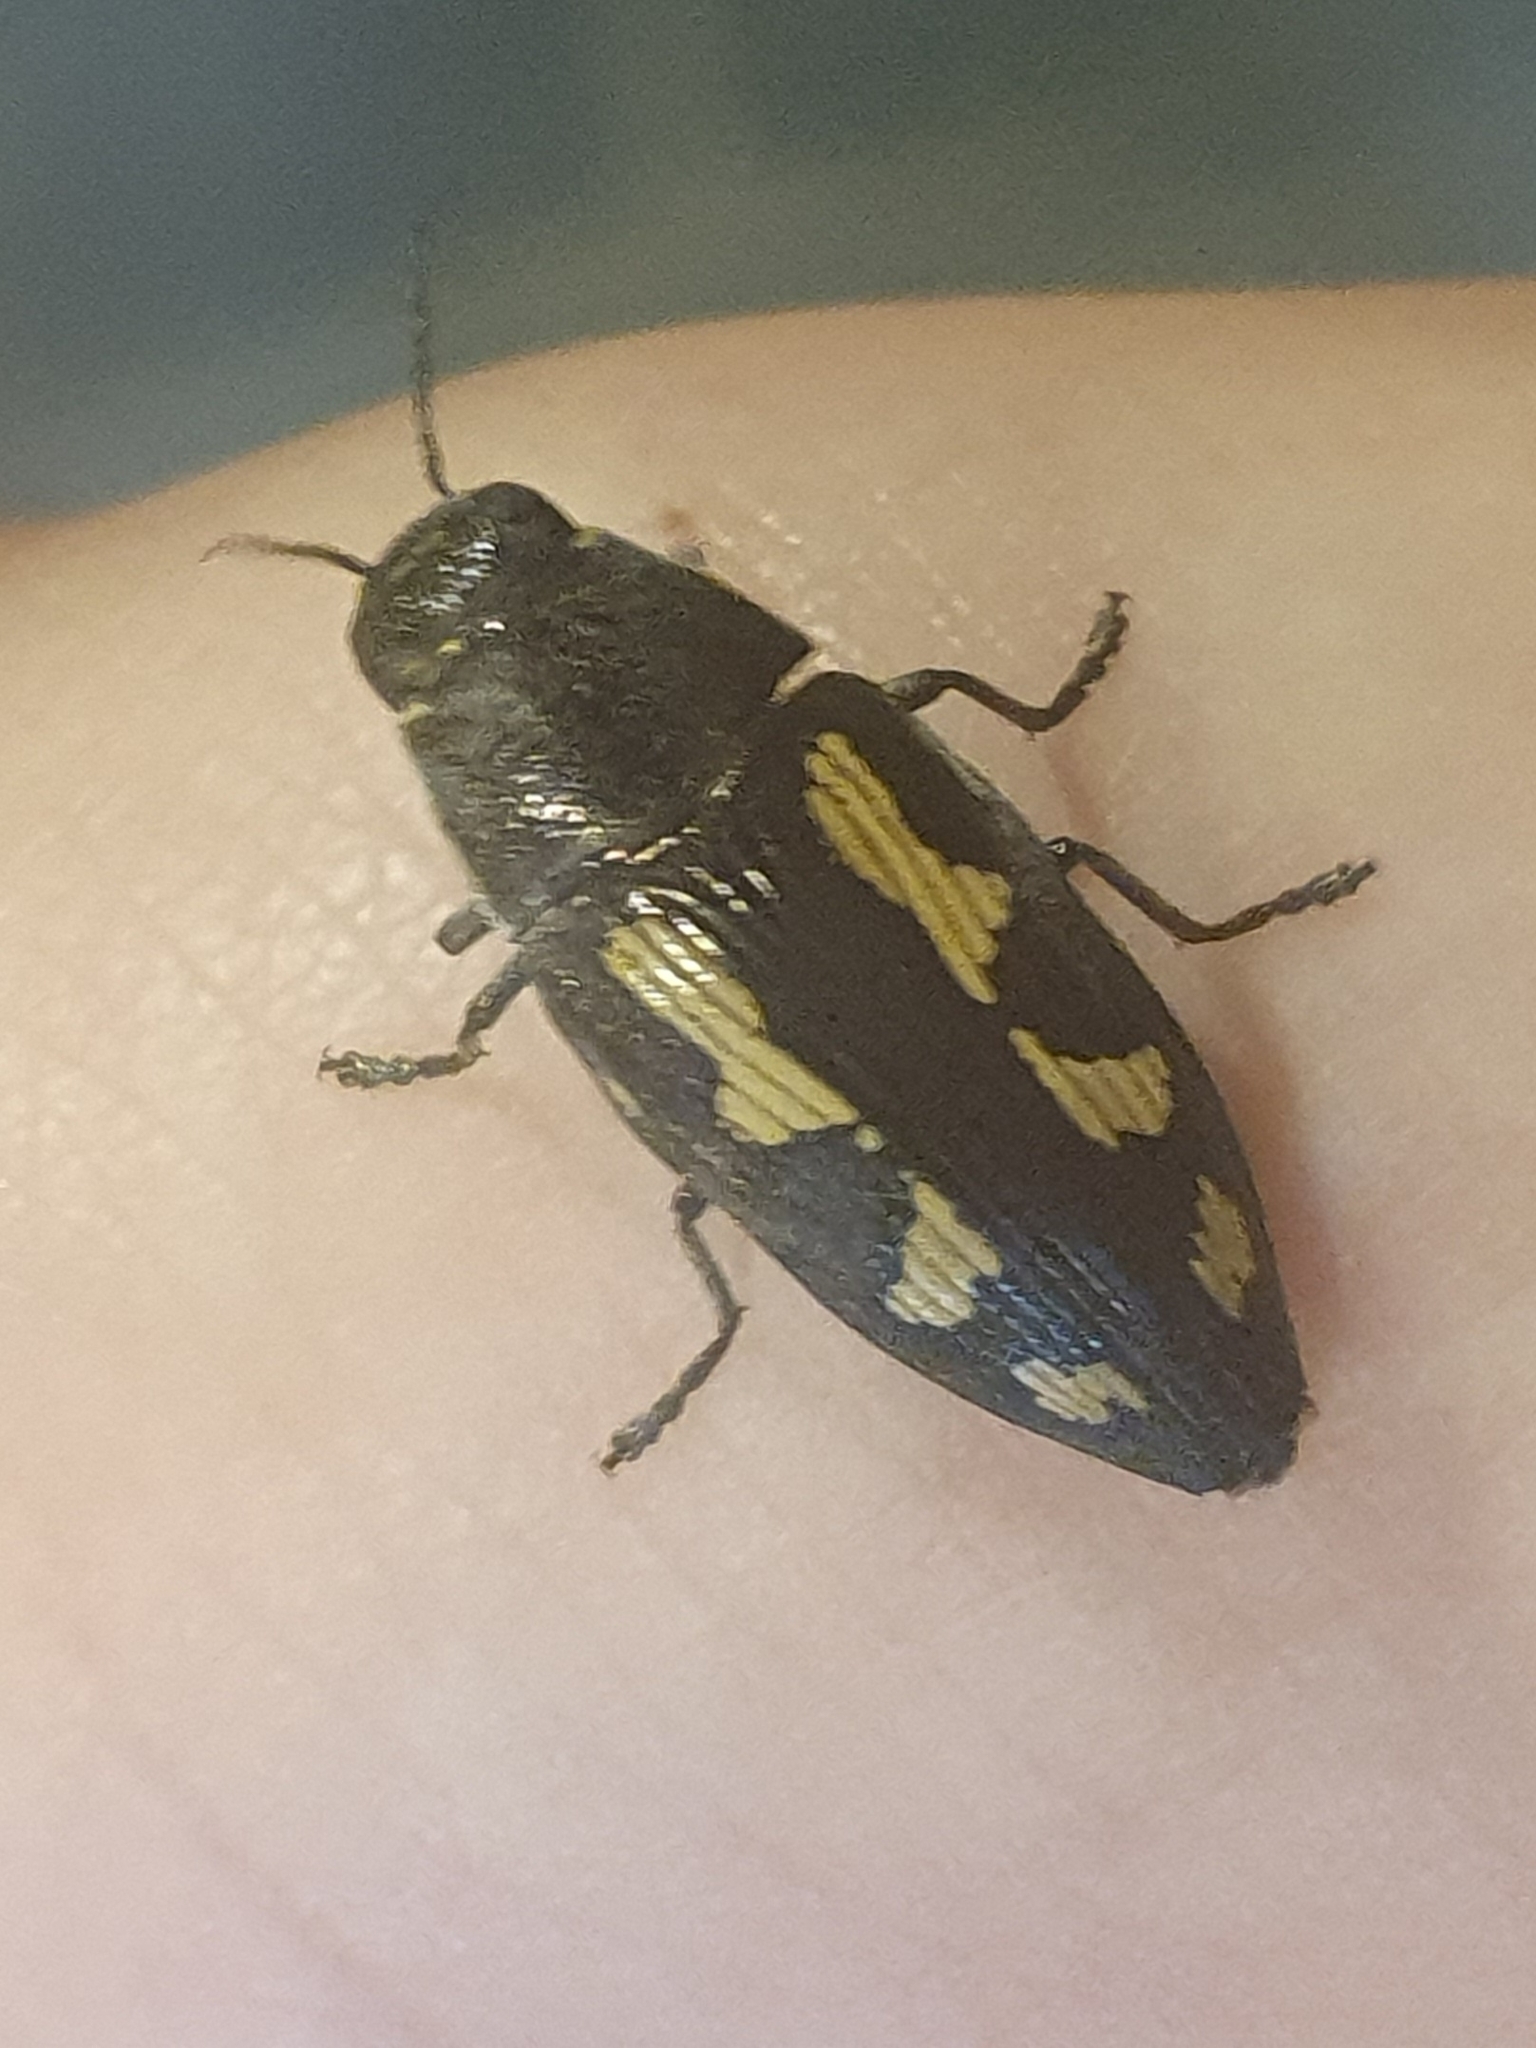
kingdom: Animalia
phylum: Arthropoda
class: Insecta
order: Coleoptera
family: Buprestidae
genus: Buprestis
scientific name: Buprestis novemmaculata
